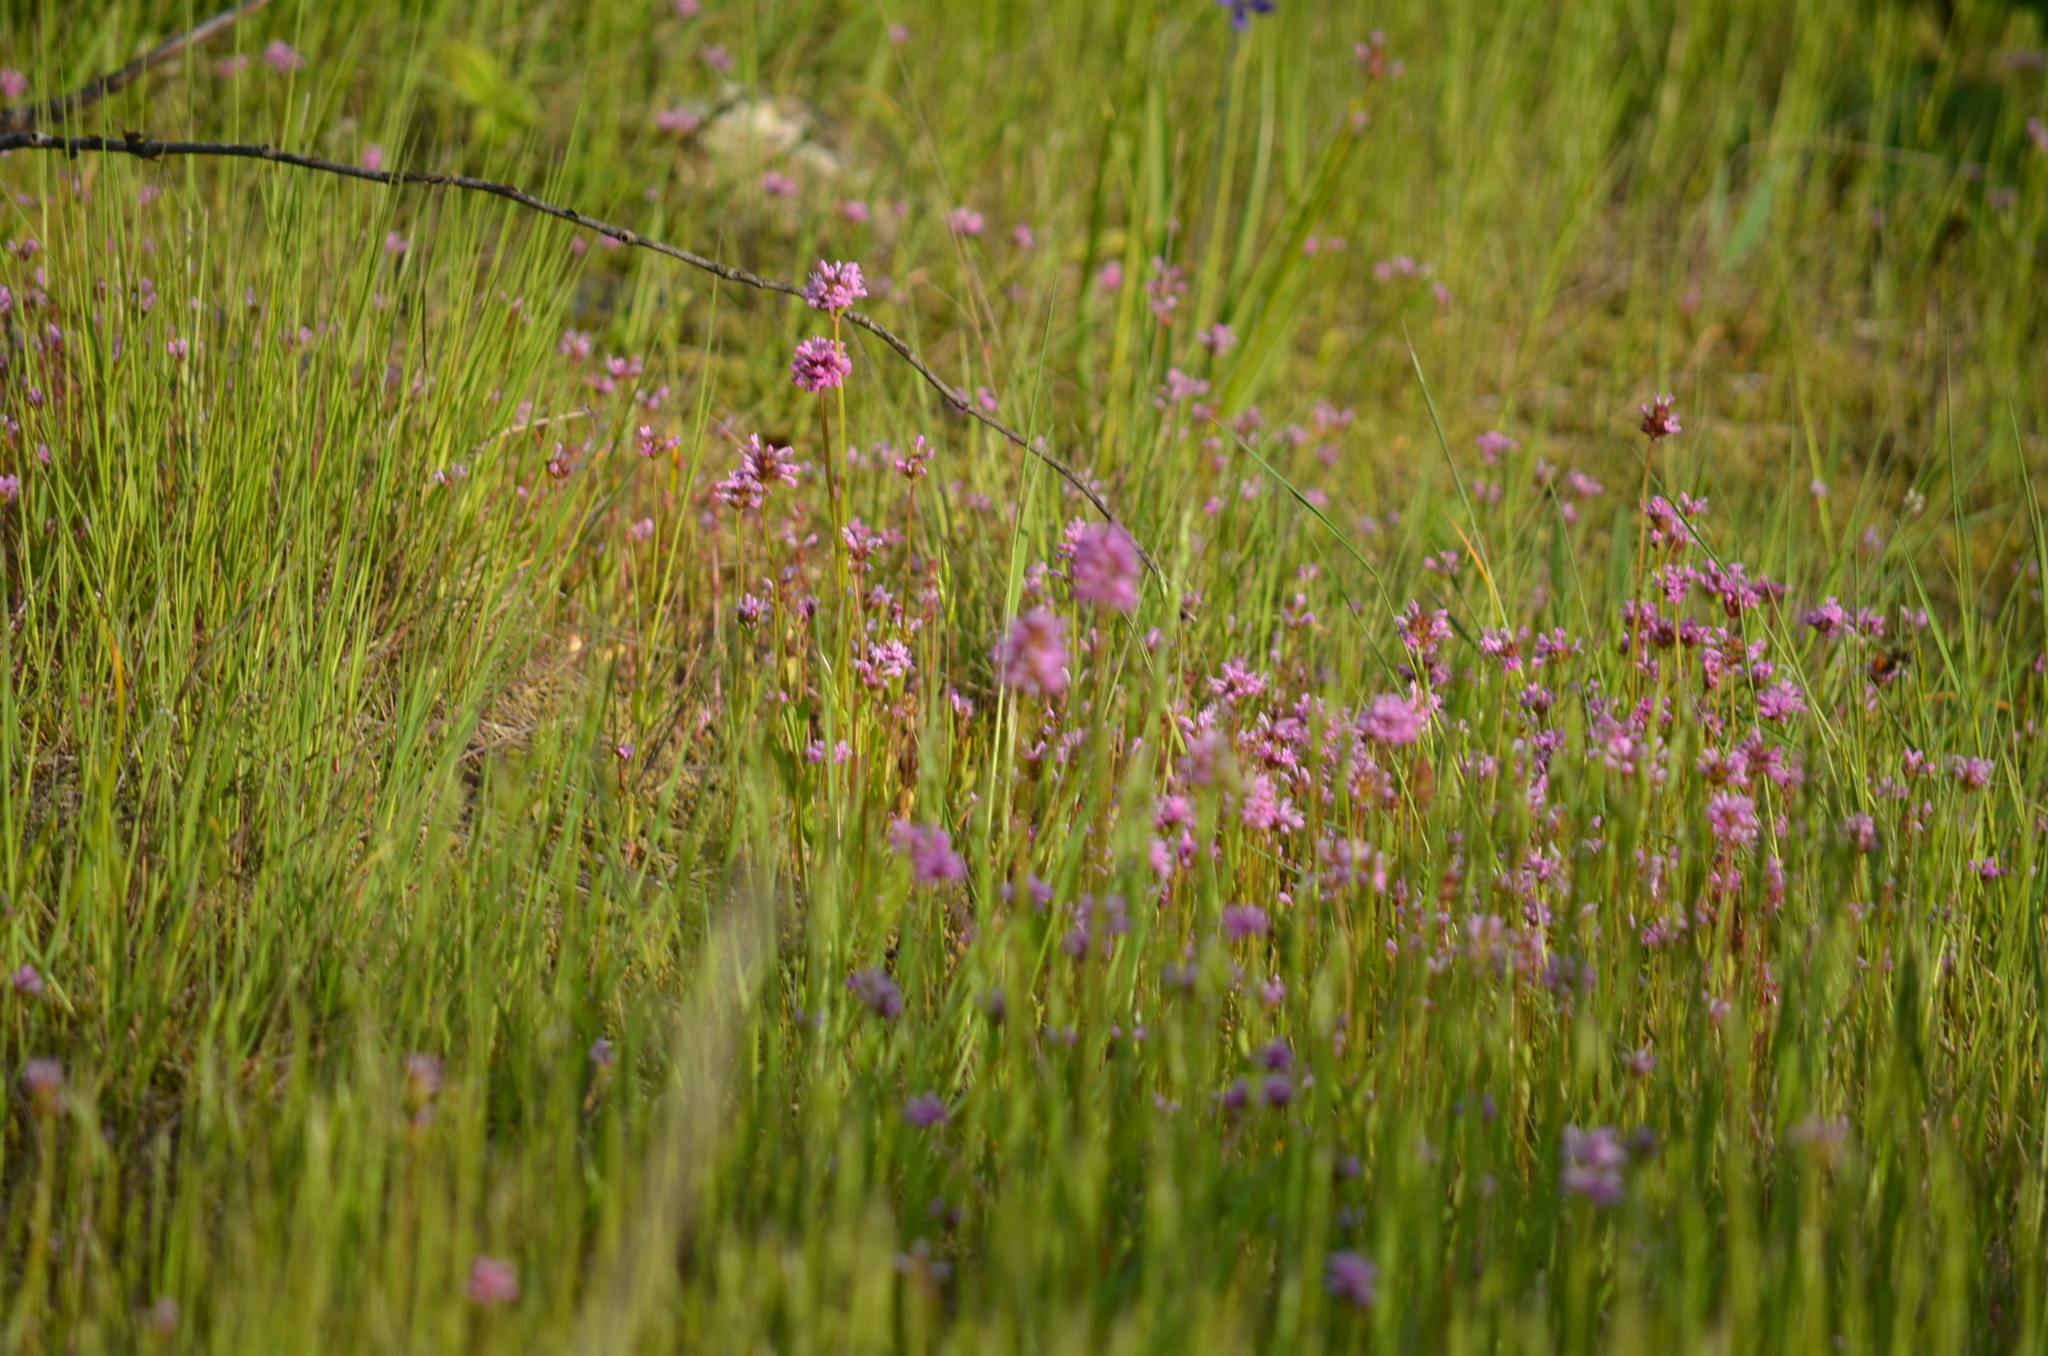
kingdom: Plantae
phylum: Tracheophyta
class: Magnoliopsida
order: Dipsacales
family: Caprifoliaceae
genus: Plectritis
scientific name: Plectritis congesta
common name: Pink plectritis
